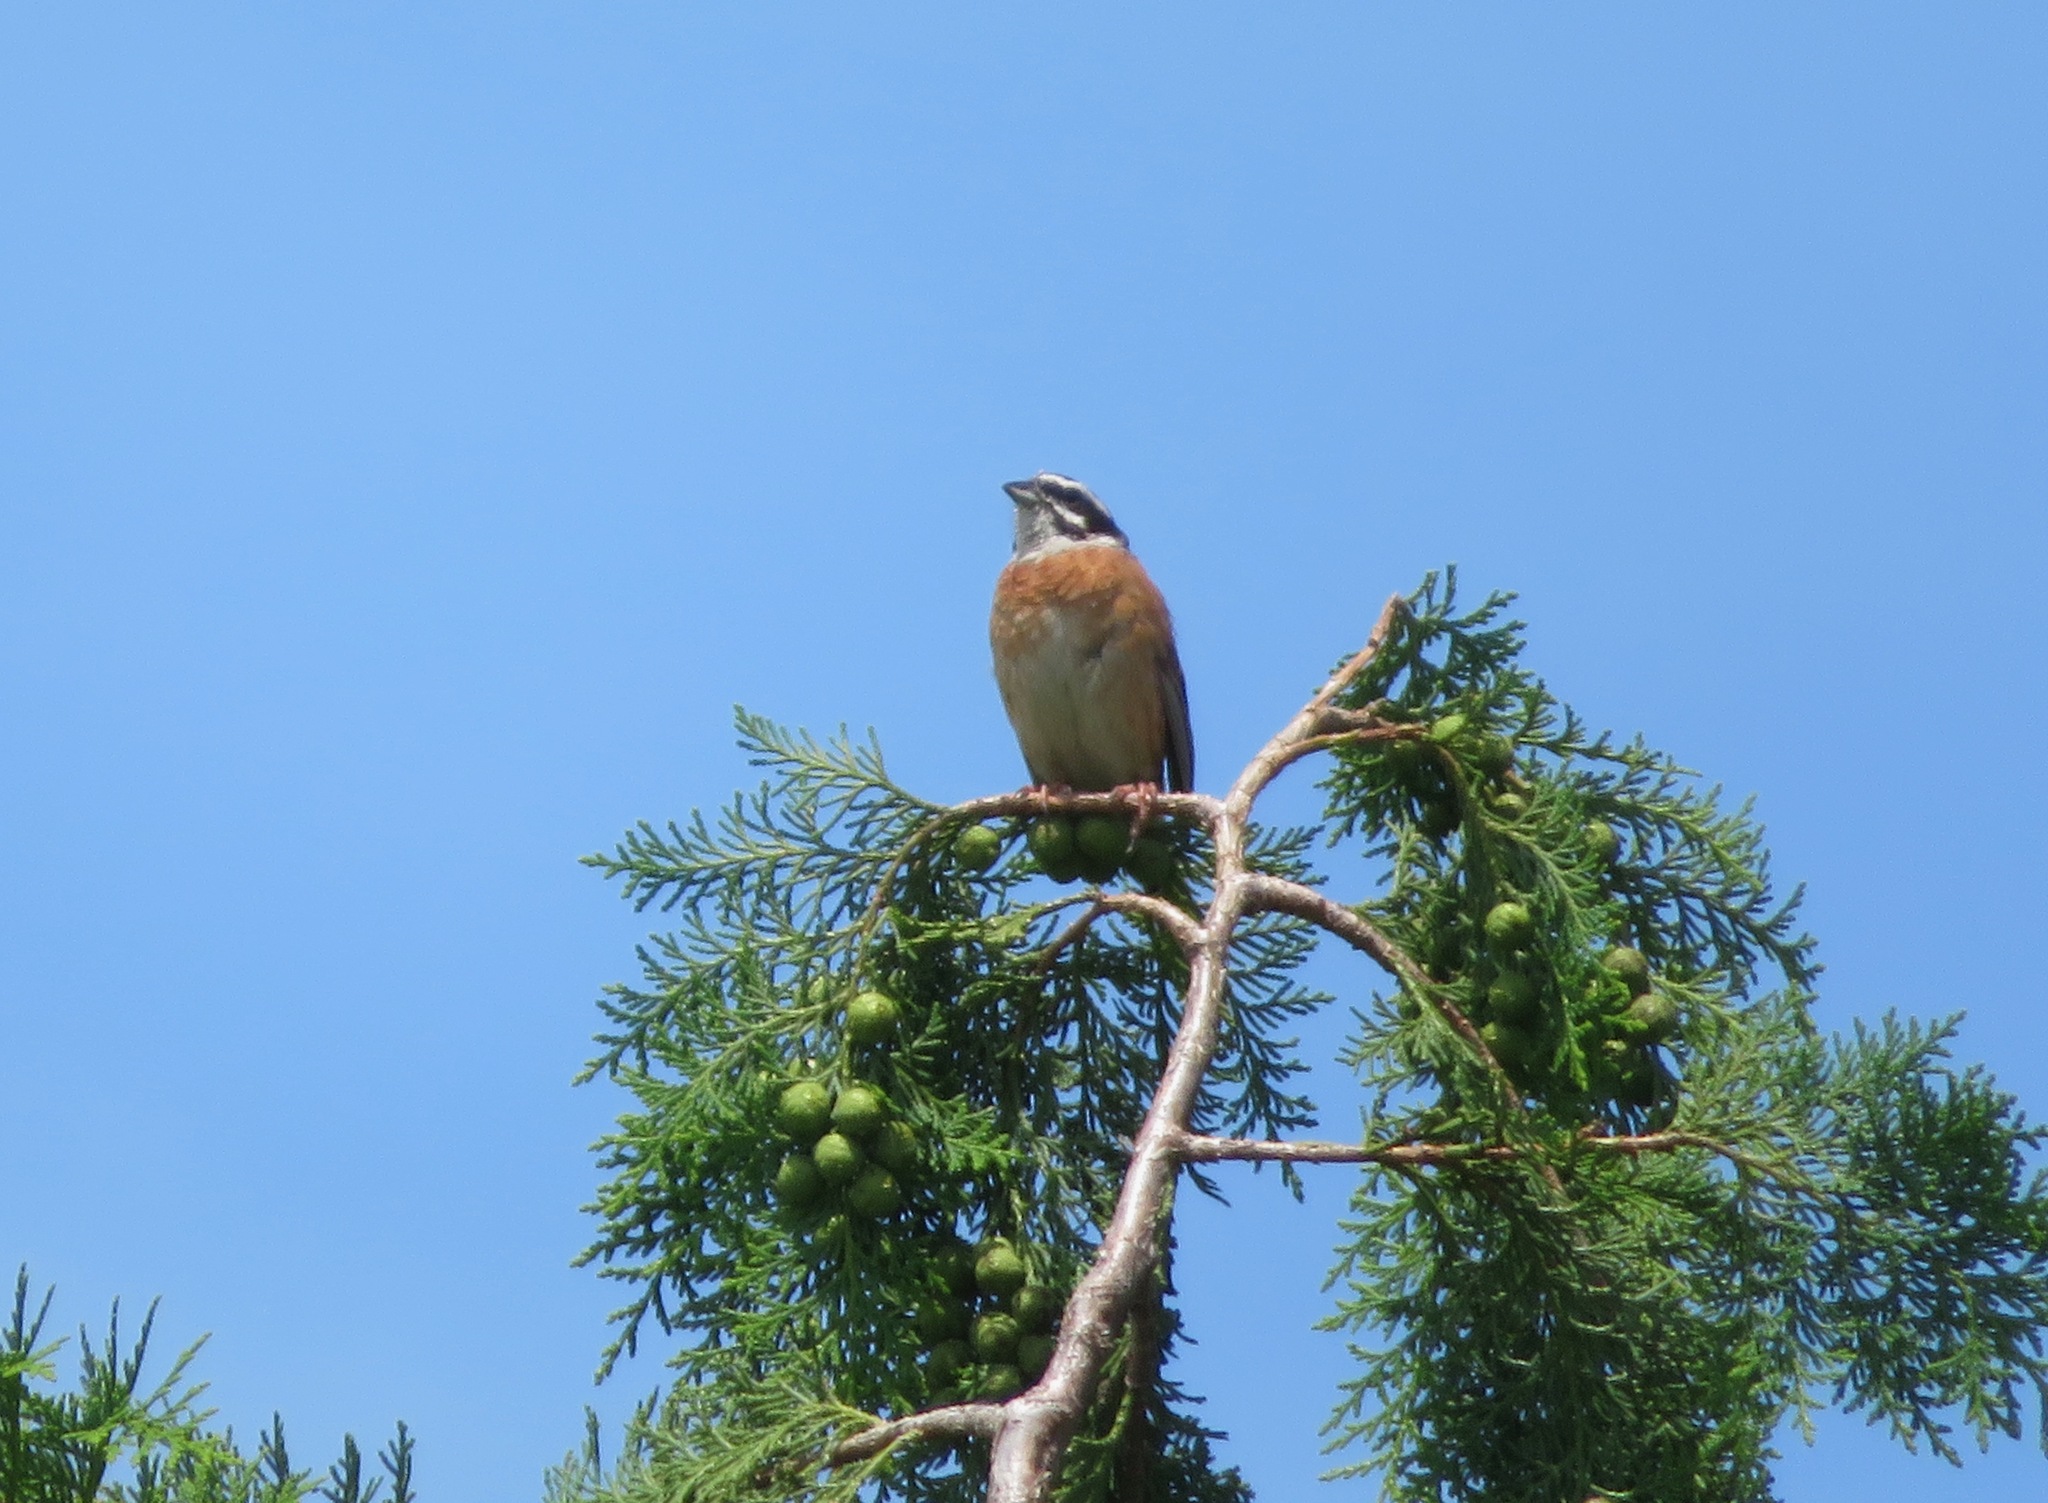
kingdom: Animalia
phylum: Chordata
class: Aves
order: Passeriformes
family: Emberizidae
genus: Emberiza
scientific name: Emberiza cioides
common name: Meadow bunting
